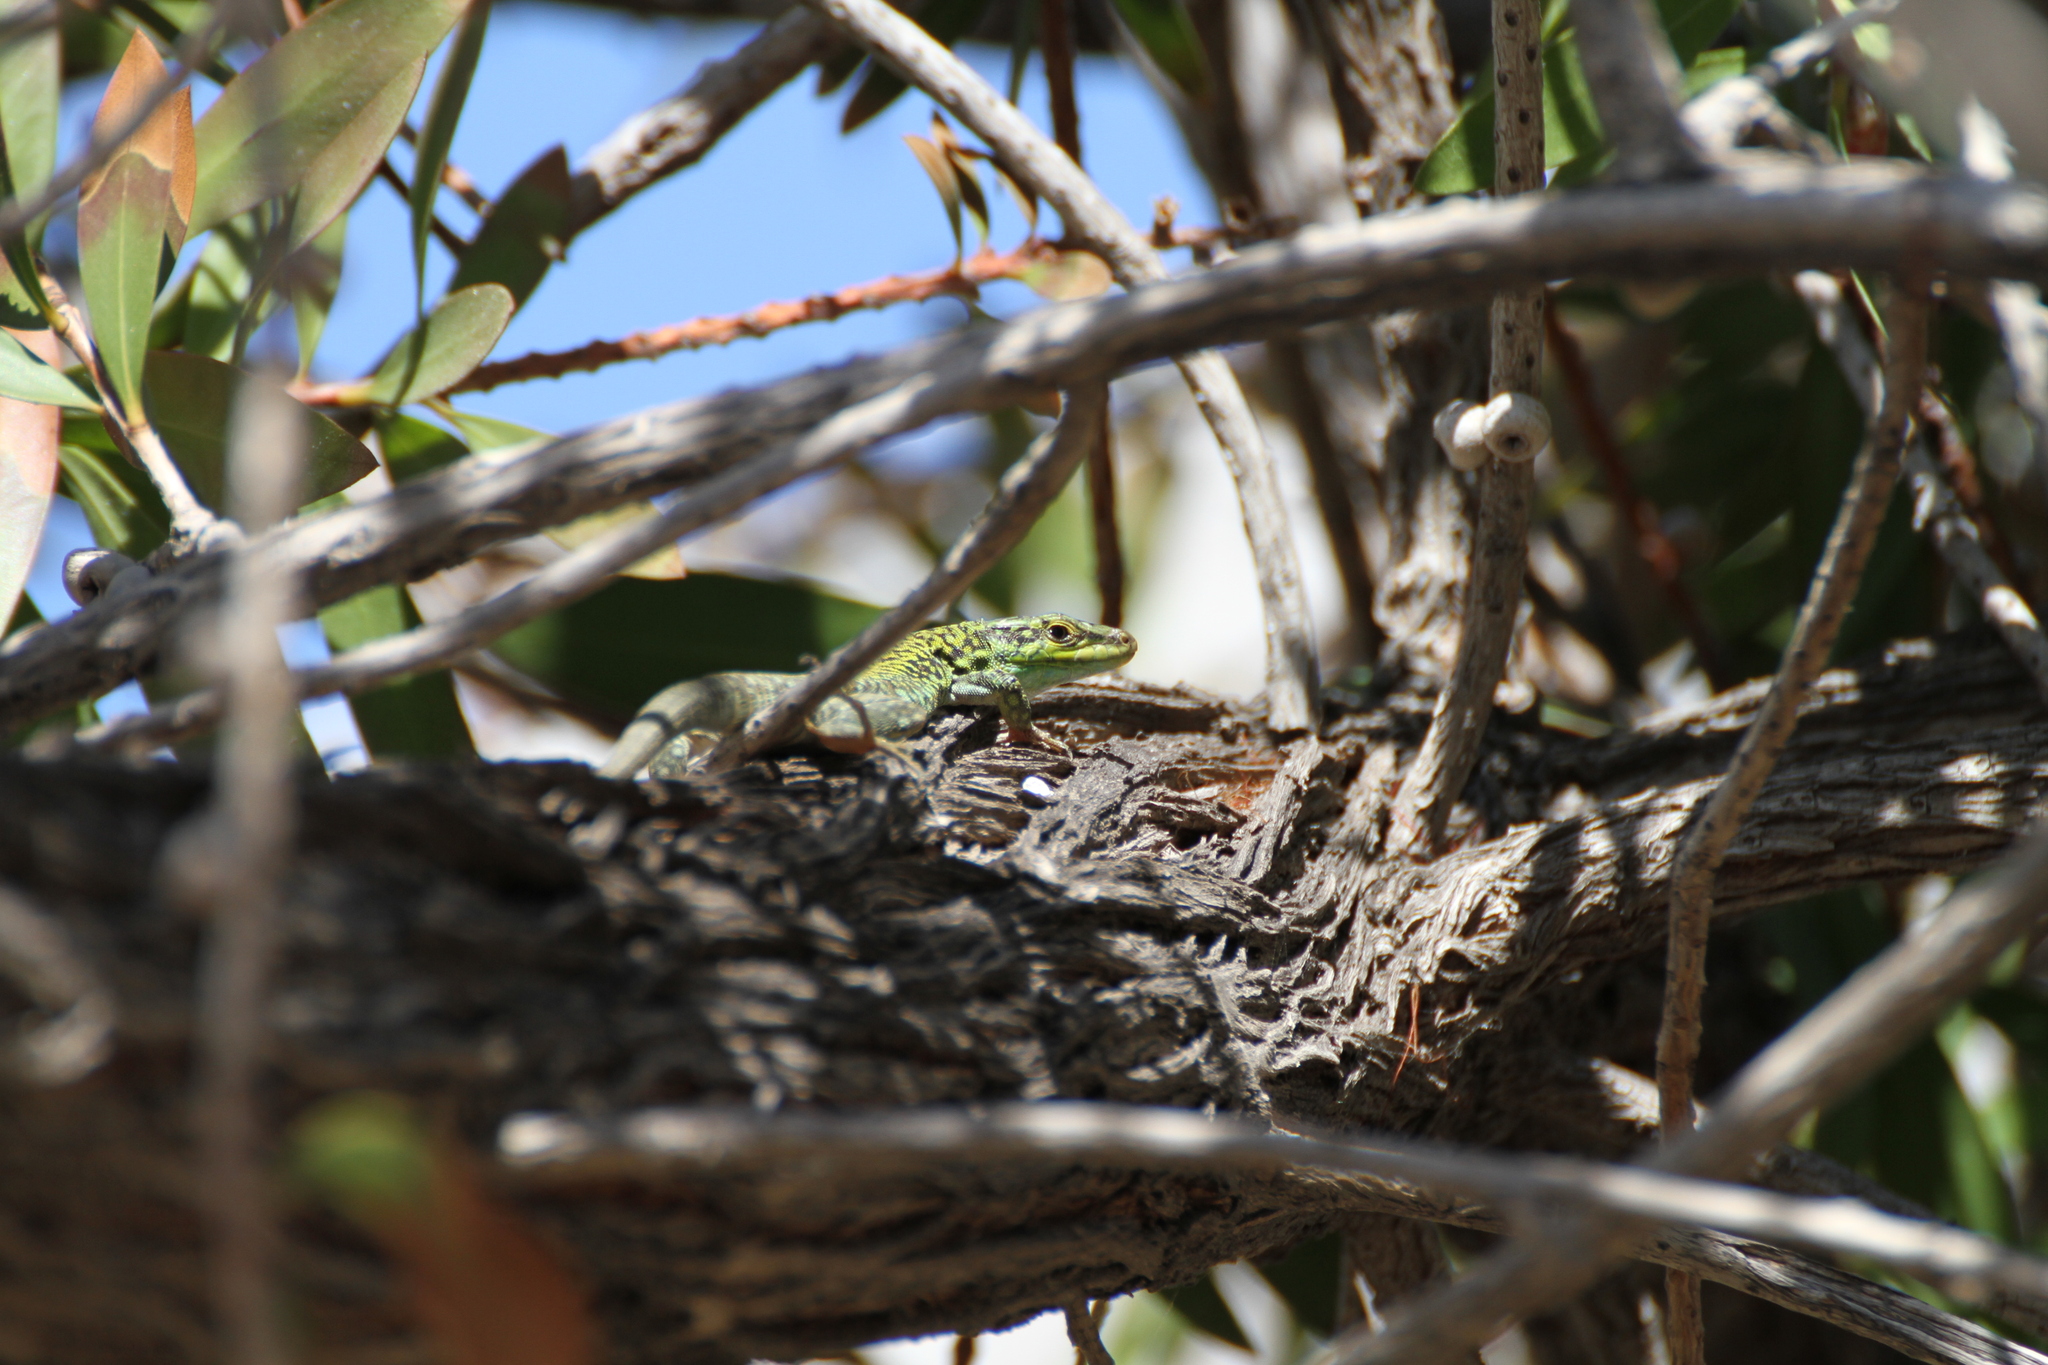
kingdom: Animalia
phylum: Chordata
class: Squamata
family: Lacertidae
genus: Podarcis
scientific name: Podarcis siculus
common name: Italian wall lizard
